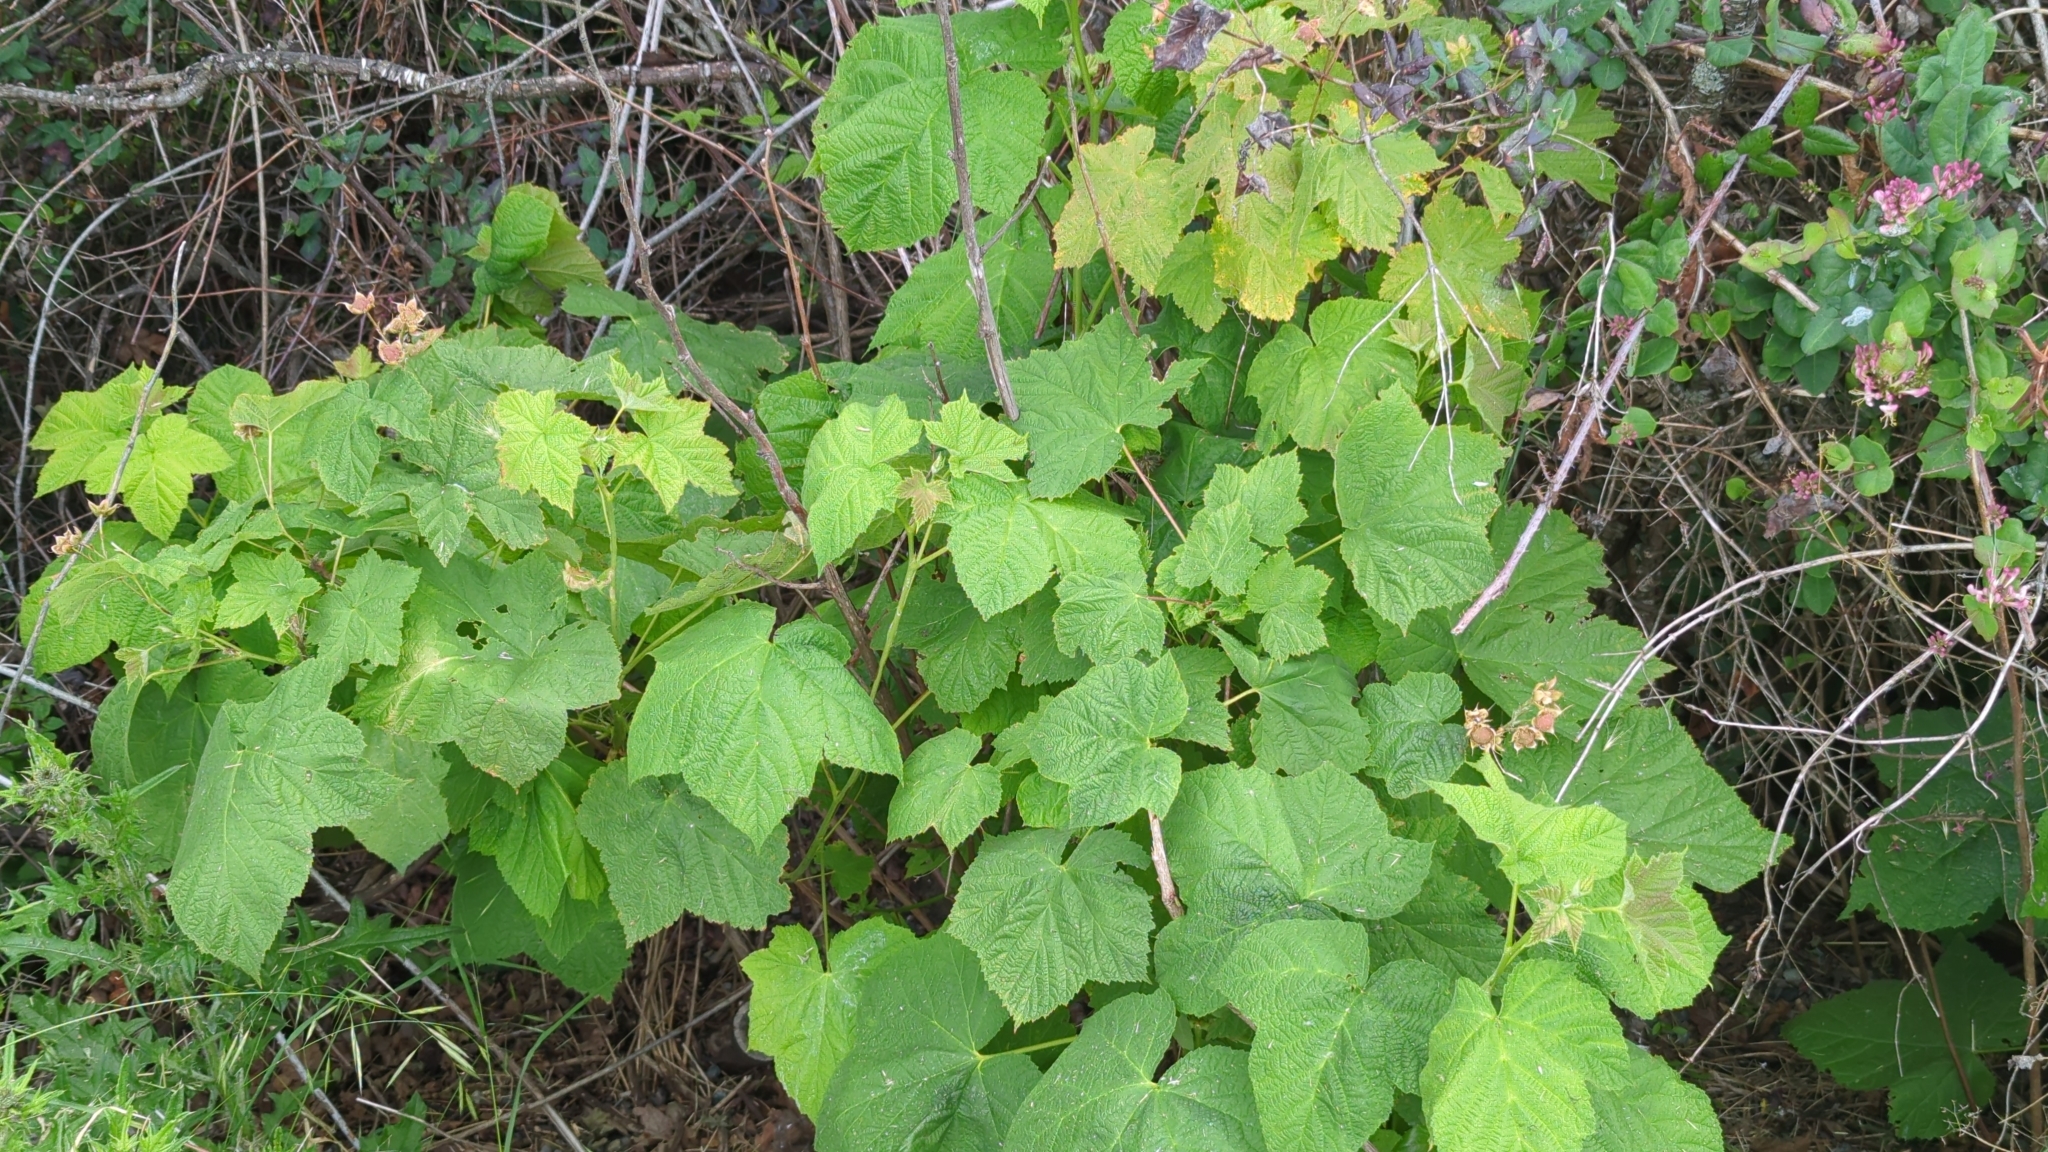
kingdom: Plantae
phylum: Tracheophyta
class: Magnoliopsida
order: Rosales
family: Rosaceae
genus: Rubus
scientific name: Rubus parviflorus
